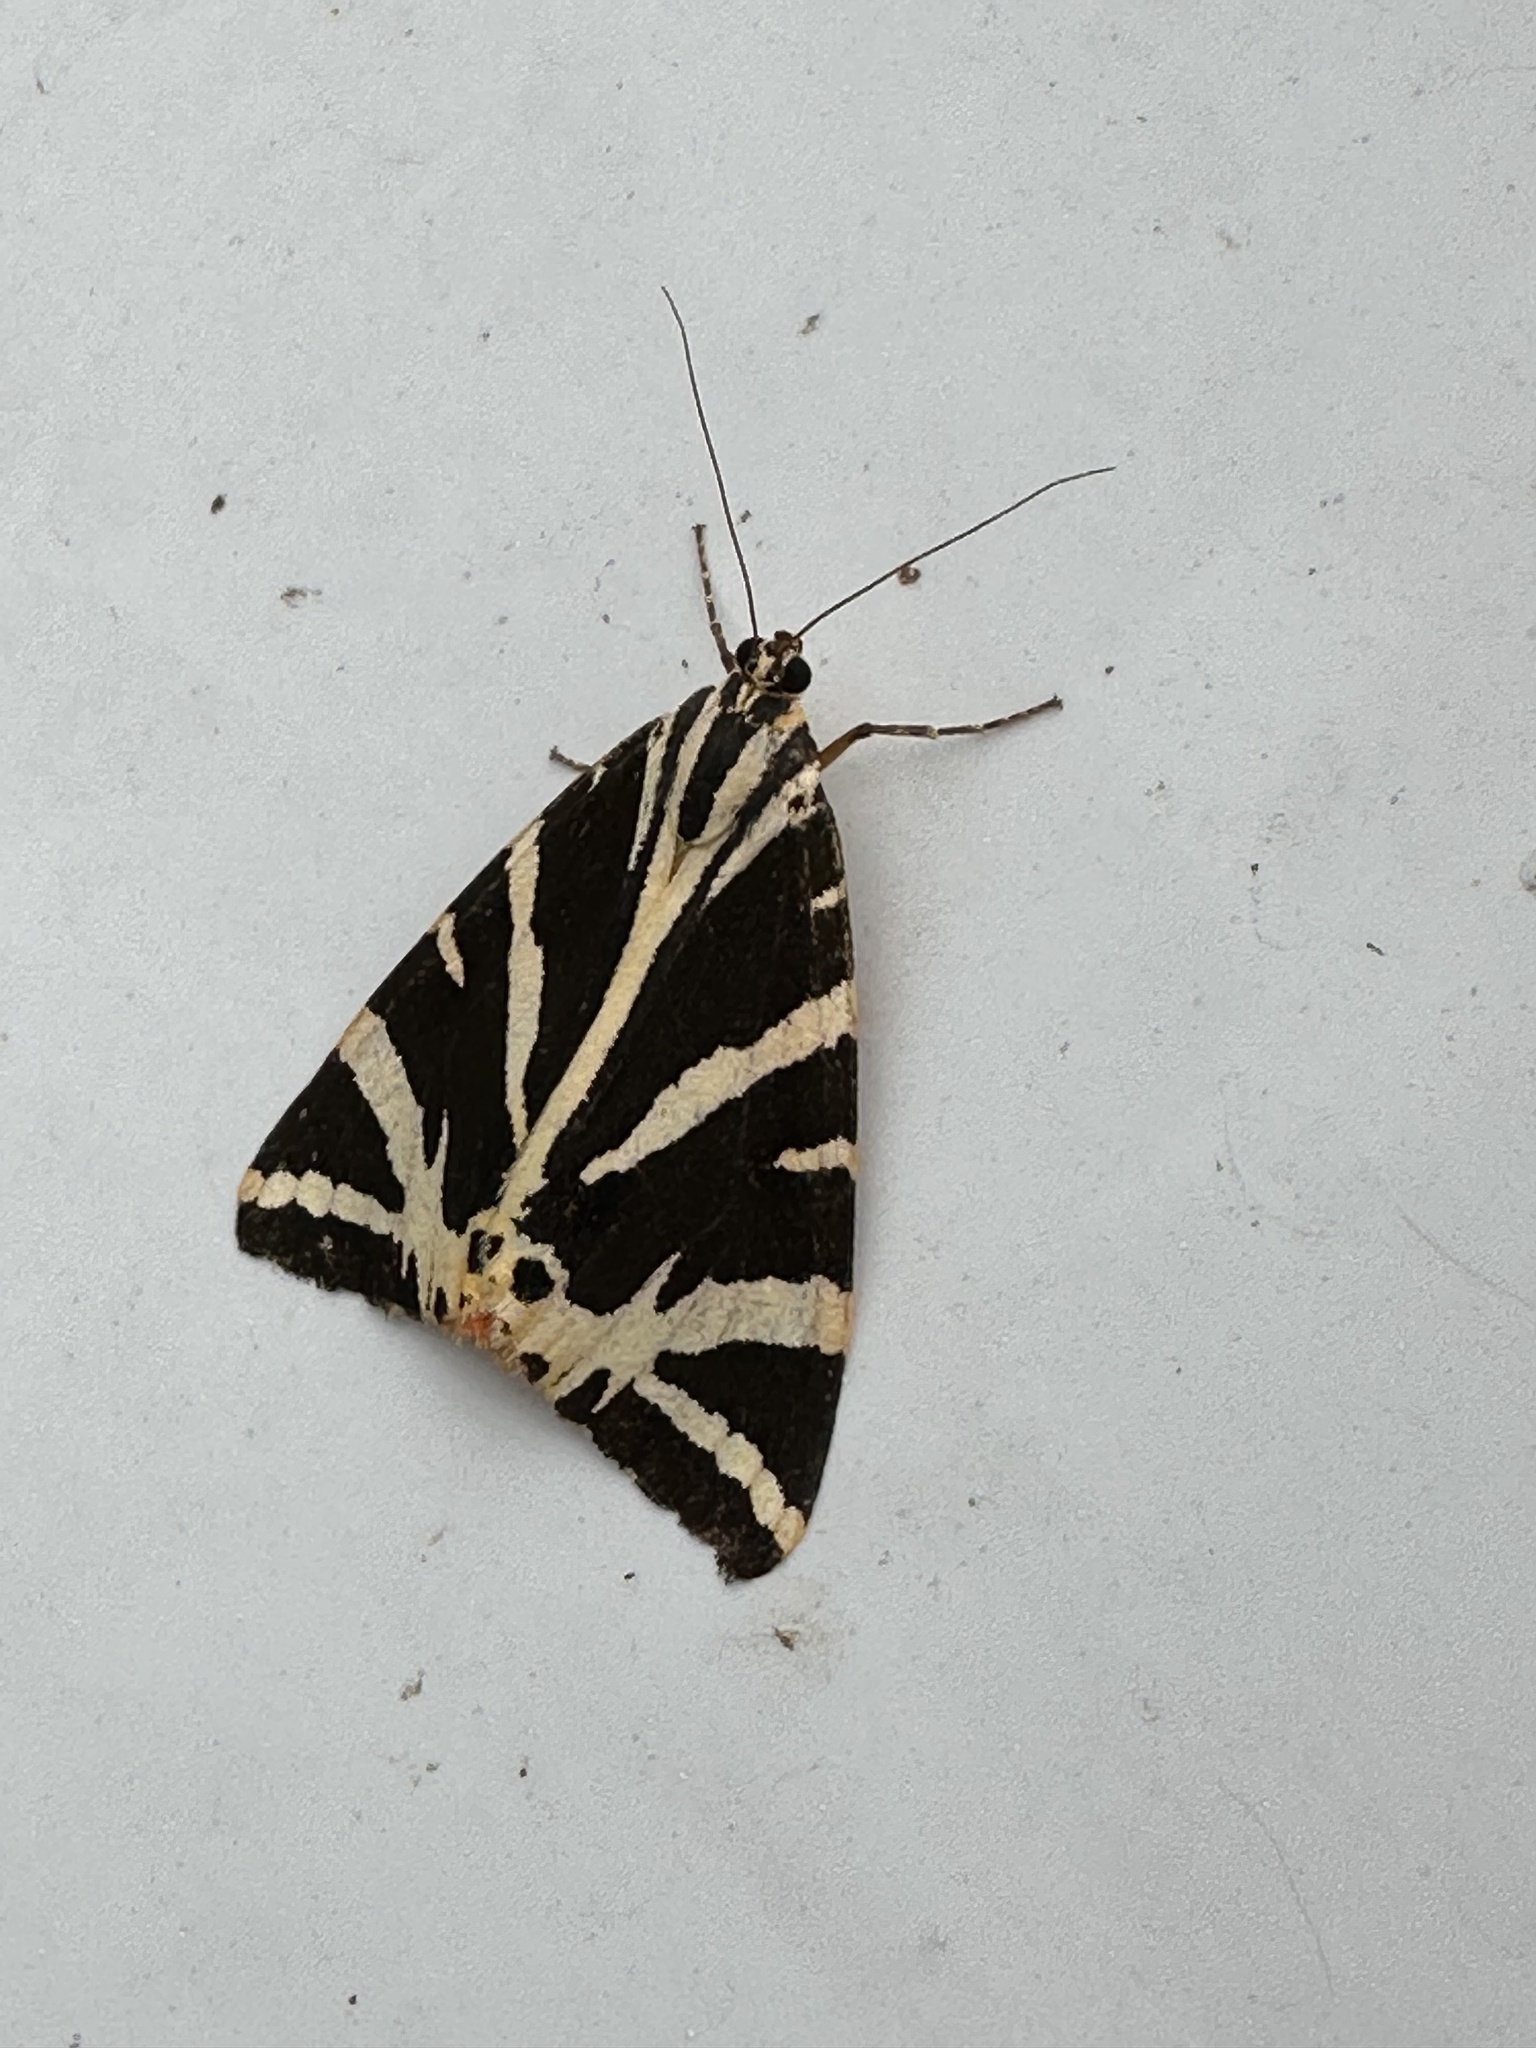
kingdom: Animalia
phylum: Arthropoda
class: Insecta
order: Lepidoptera
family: Erebidae
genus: Euplagia
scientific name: Euplagia quadripunctaria
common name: Jersey tiger
